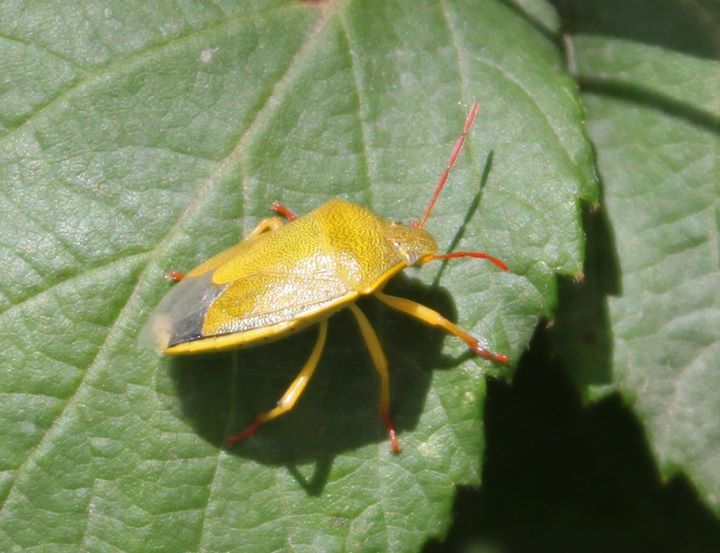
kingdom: Animalia
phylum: Arthropoda
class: Insecta
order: Hemiptera
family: Pentatomidae
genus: Piezodorus
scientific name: Piezodorus lituratus
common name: Stink bug
